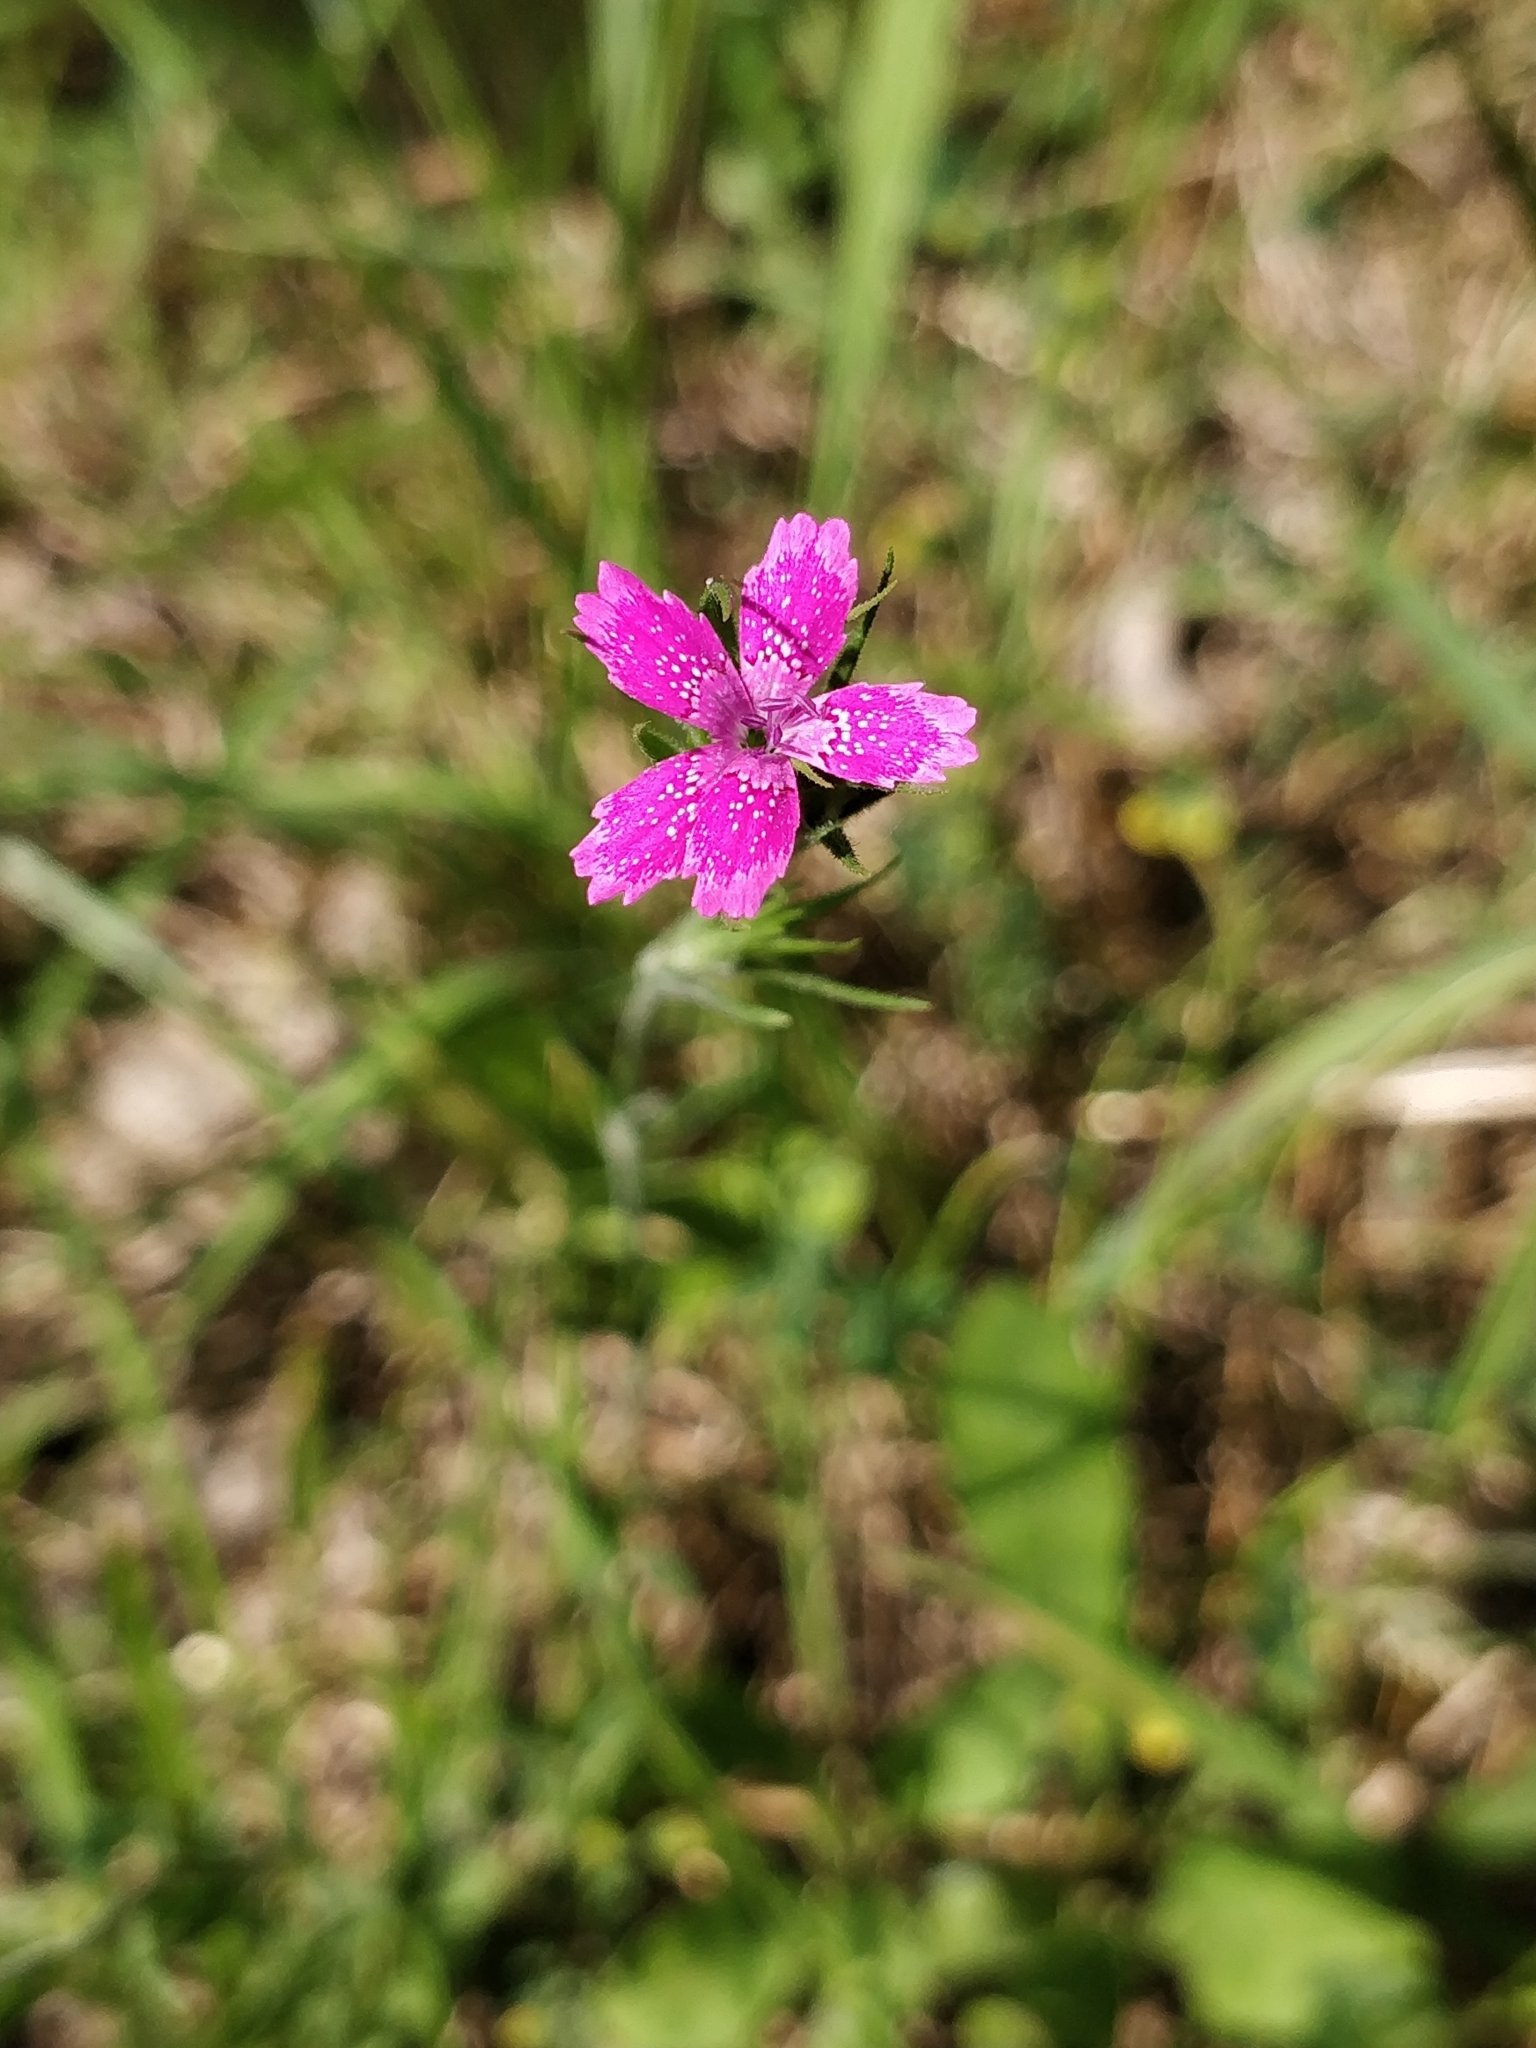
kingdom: Plantae
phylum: Tracheophyta
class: Magnoliopsida
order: Caryophyllales
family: Caryophyllaceae
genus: Dianthus
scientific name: Dianthus armeria
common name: Deptford pink
